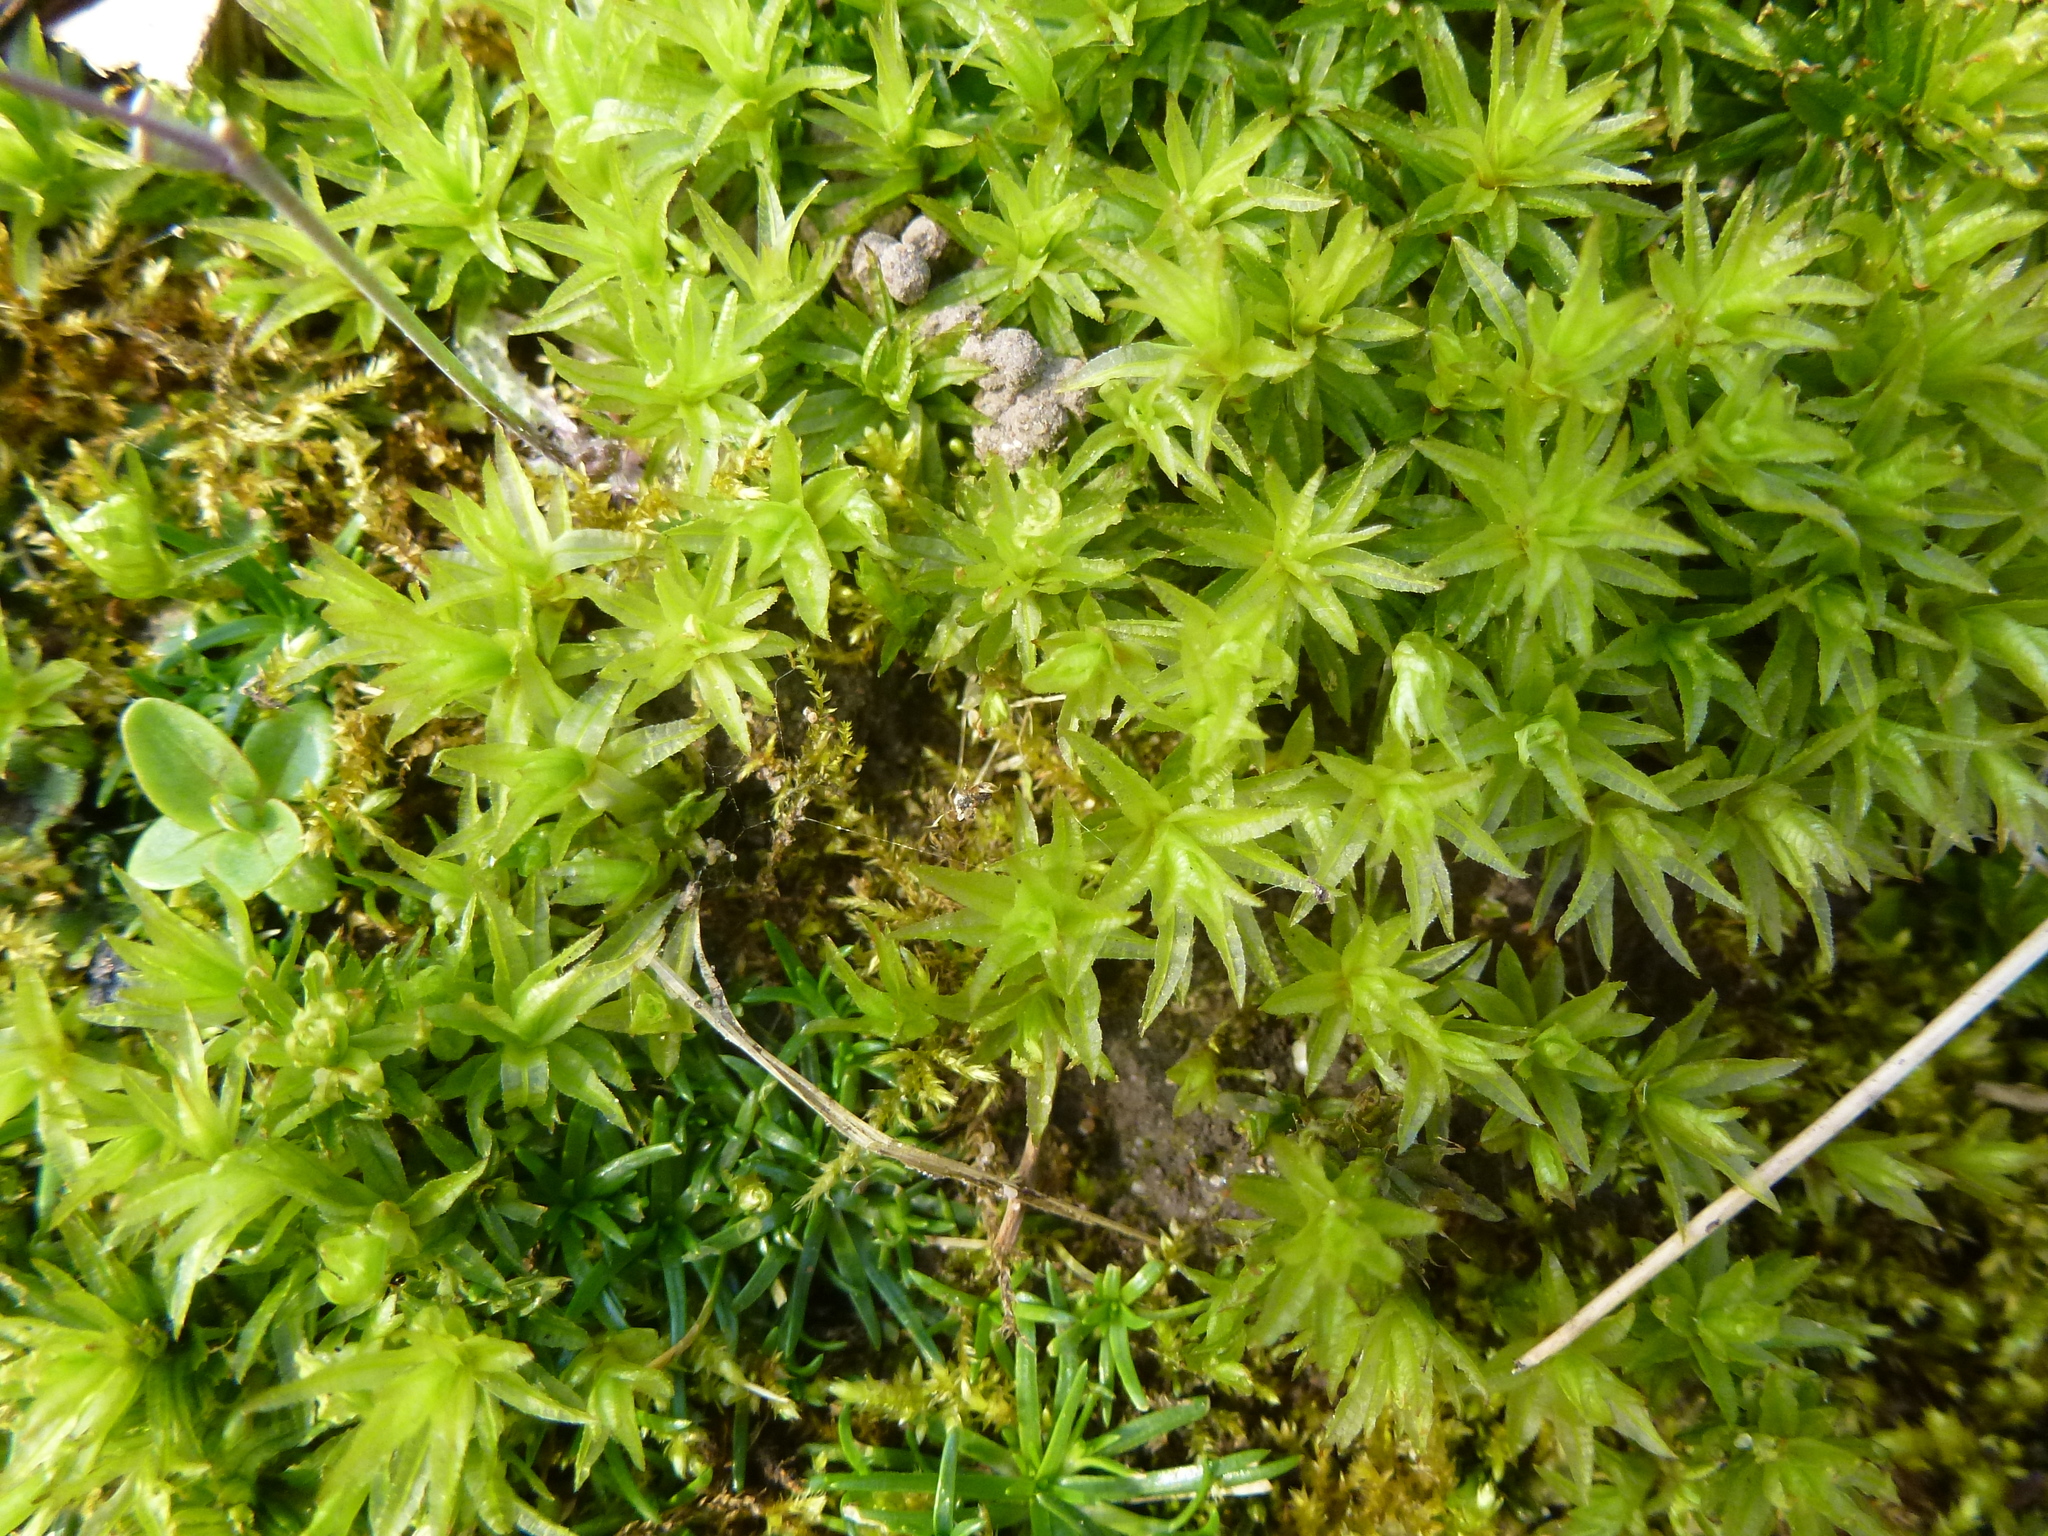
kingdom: Plantae
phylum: Bryophyta
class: Polytrichopsida
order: Polytrichales
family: Polytrichaceae
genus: Atrichum
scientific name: Atrichum undulatum
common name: Common smoothcap
